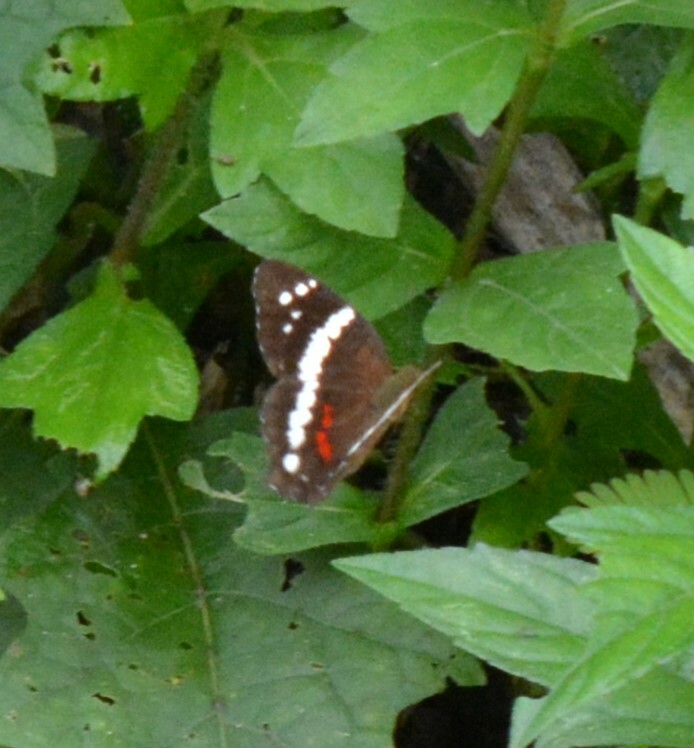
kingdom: Animalia
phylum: Arthropoda
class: Insecta
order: Lepidoptera
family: Nymphalidae
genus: Anartia
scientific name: Anartia fatima
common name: Banded peacock
